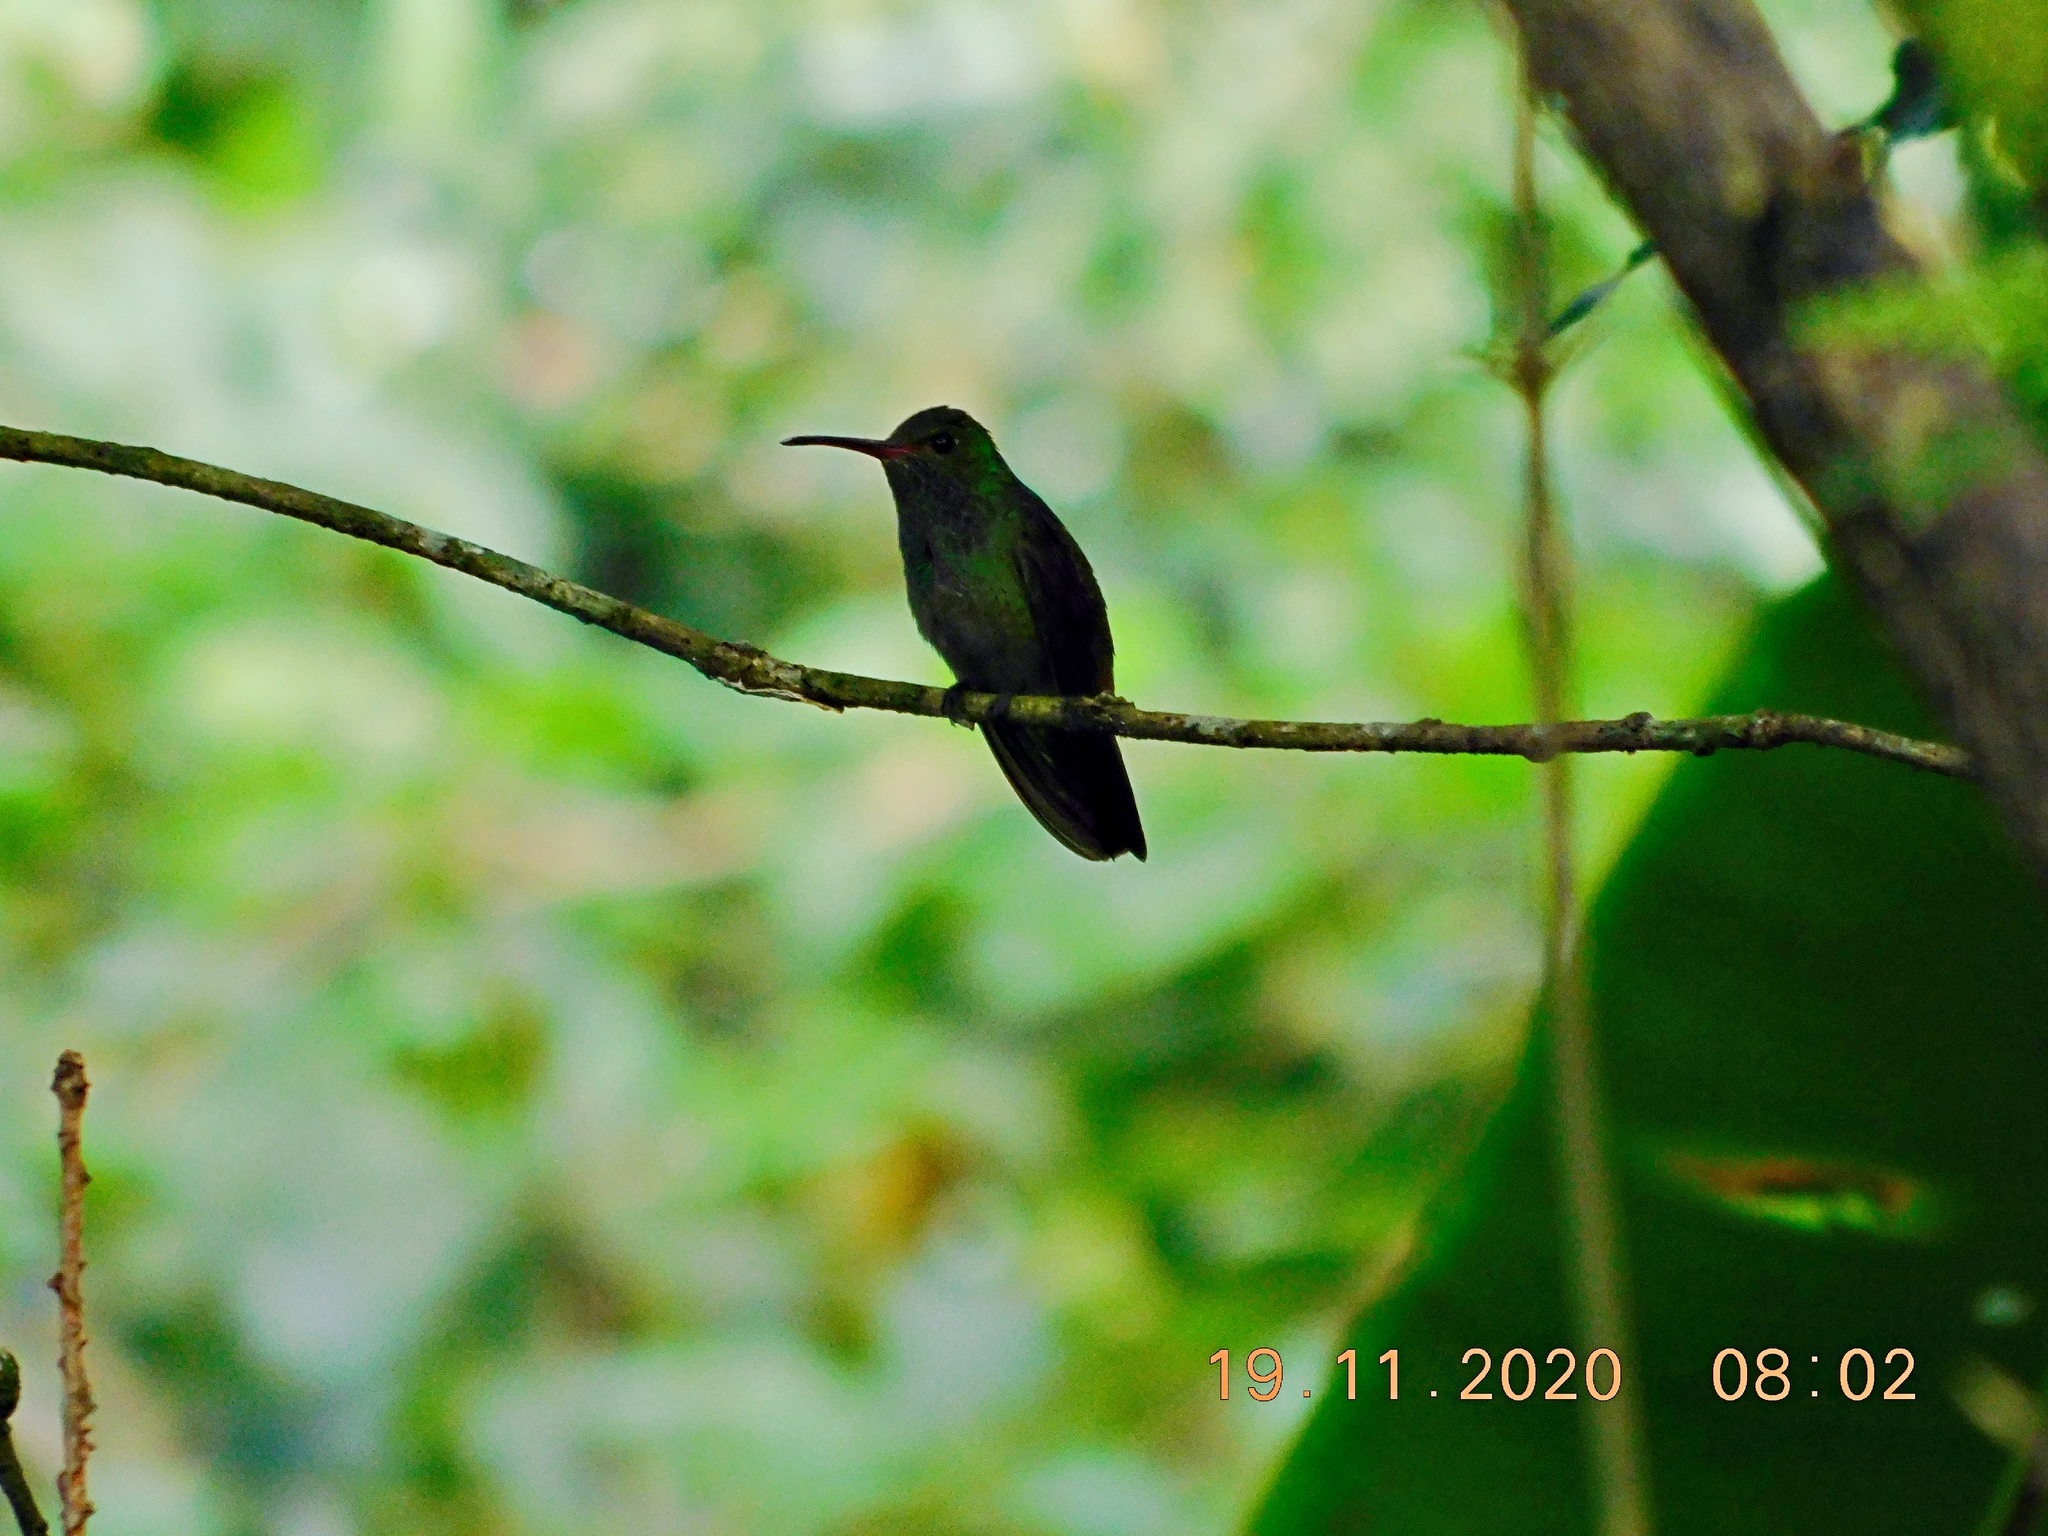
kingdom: Animalia
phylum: Chordata
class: Aves
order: Apodiformes
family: Trochilidae
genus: Amazilia
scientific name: Amazilia tzacatl
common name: Rufous-tailed hummingbird
